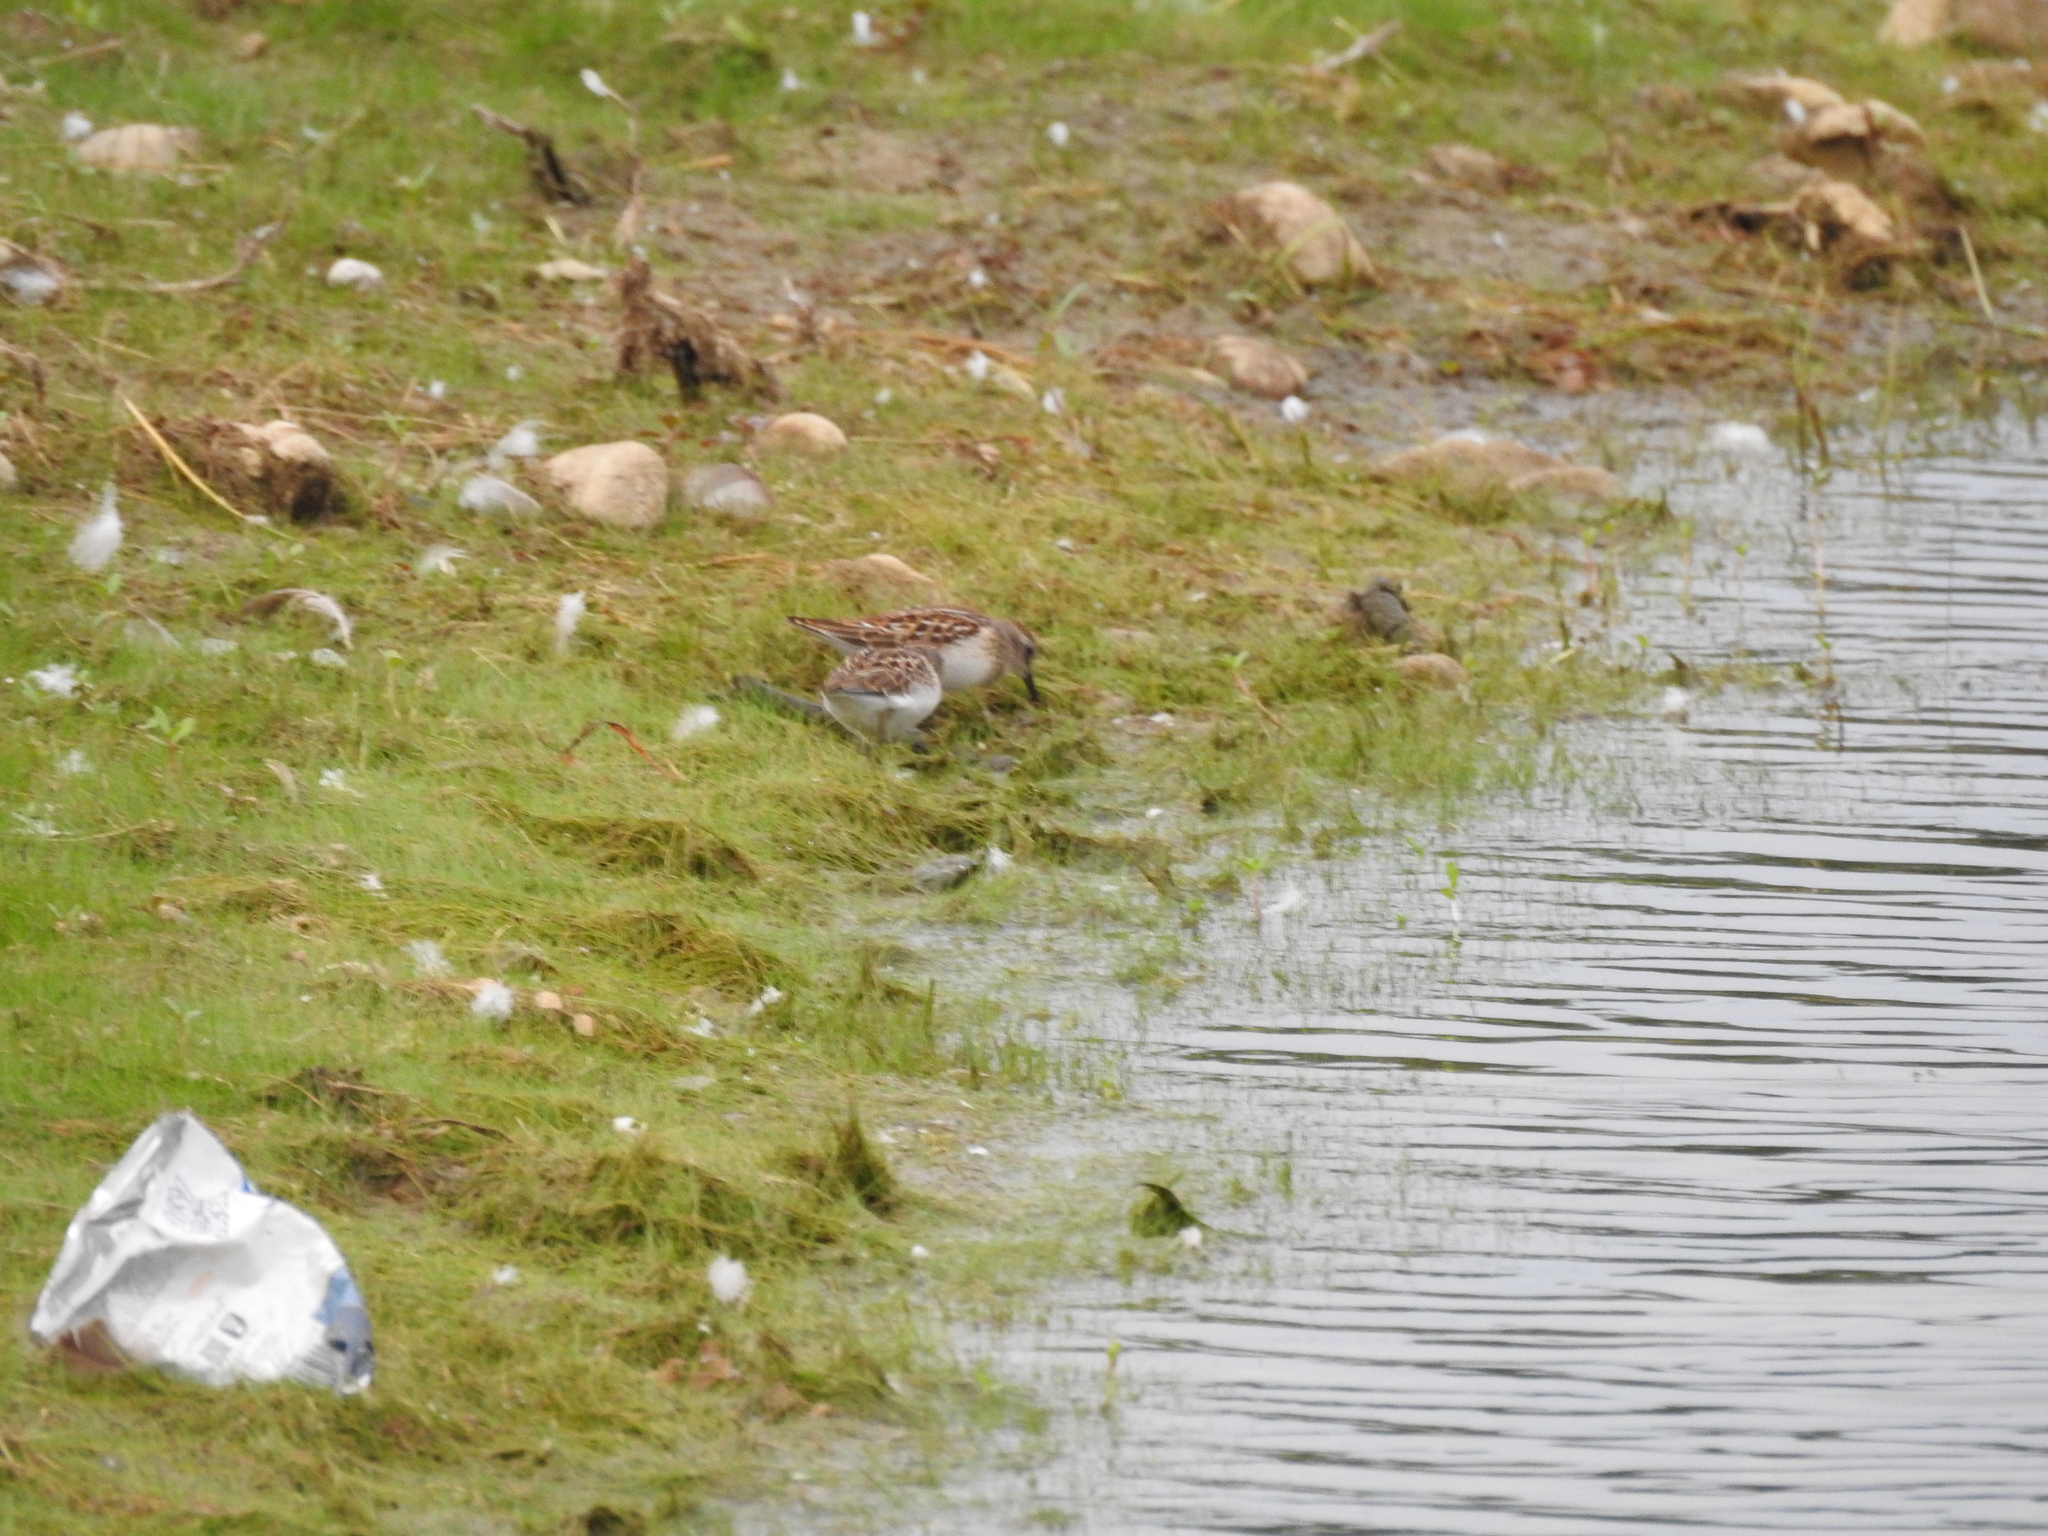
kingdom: Animalia
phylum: Chordata
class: Aves
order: Charadriiformes
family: Scolopacidae
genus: Calidris
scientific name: Calidris minutilla
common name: Least sandpiper
